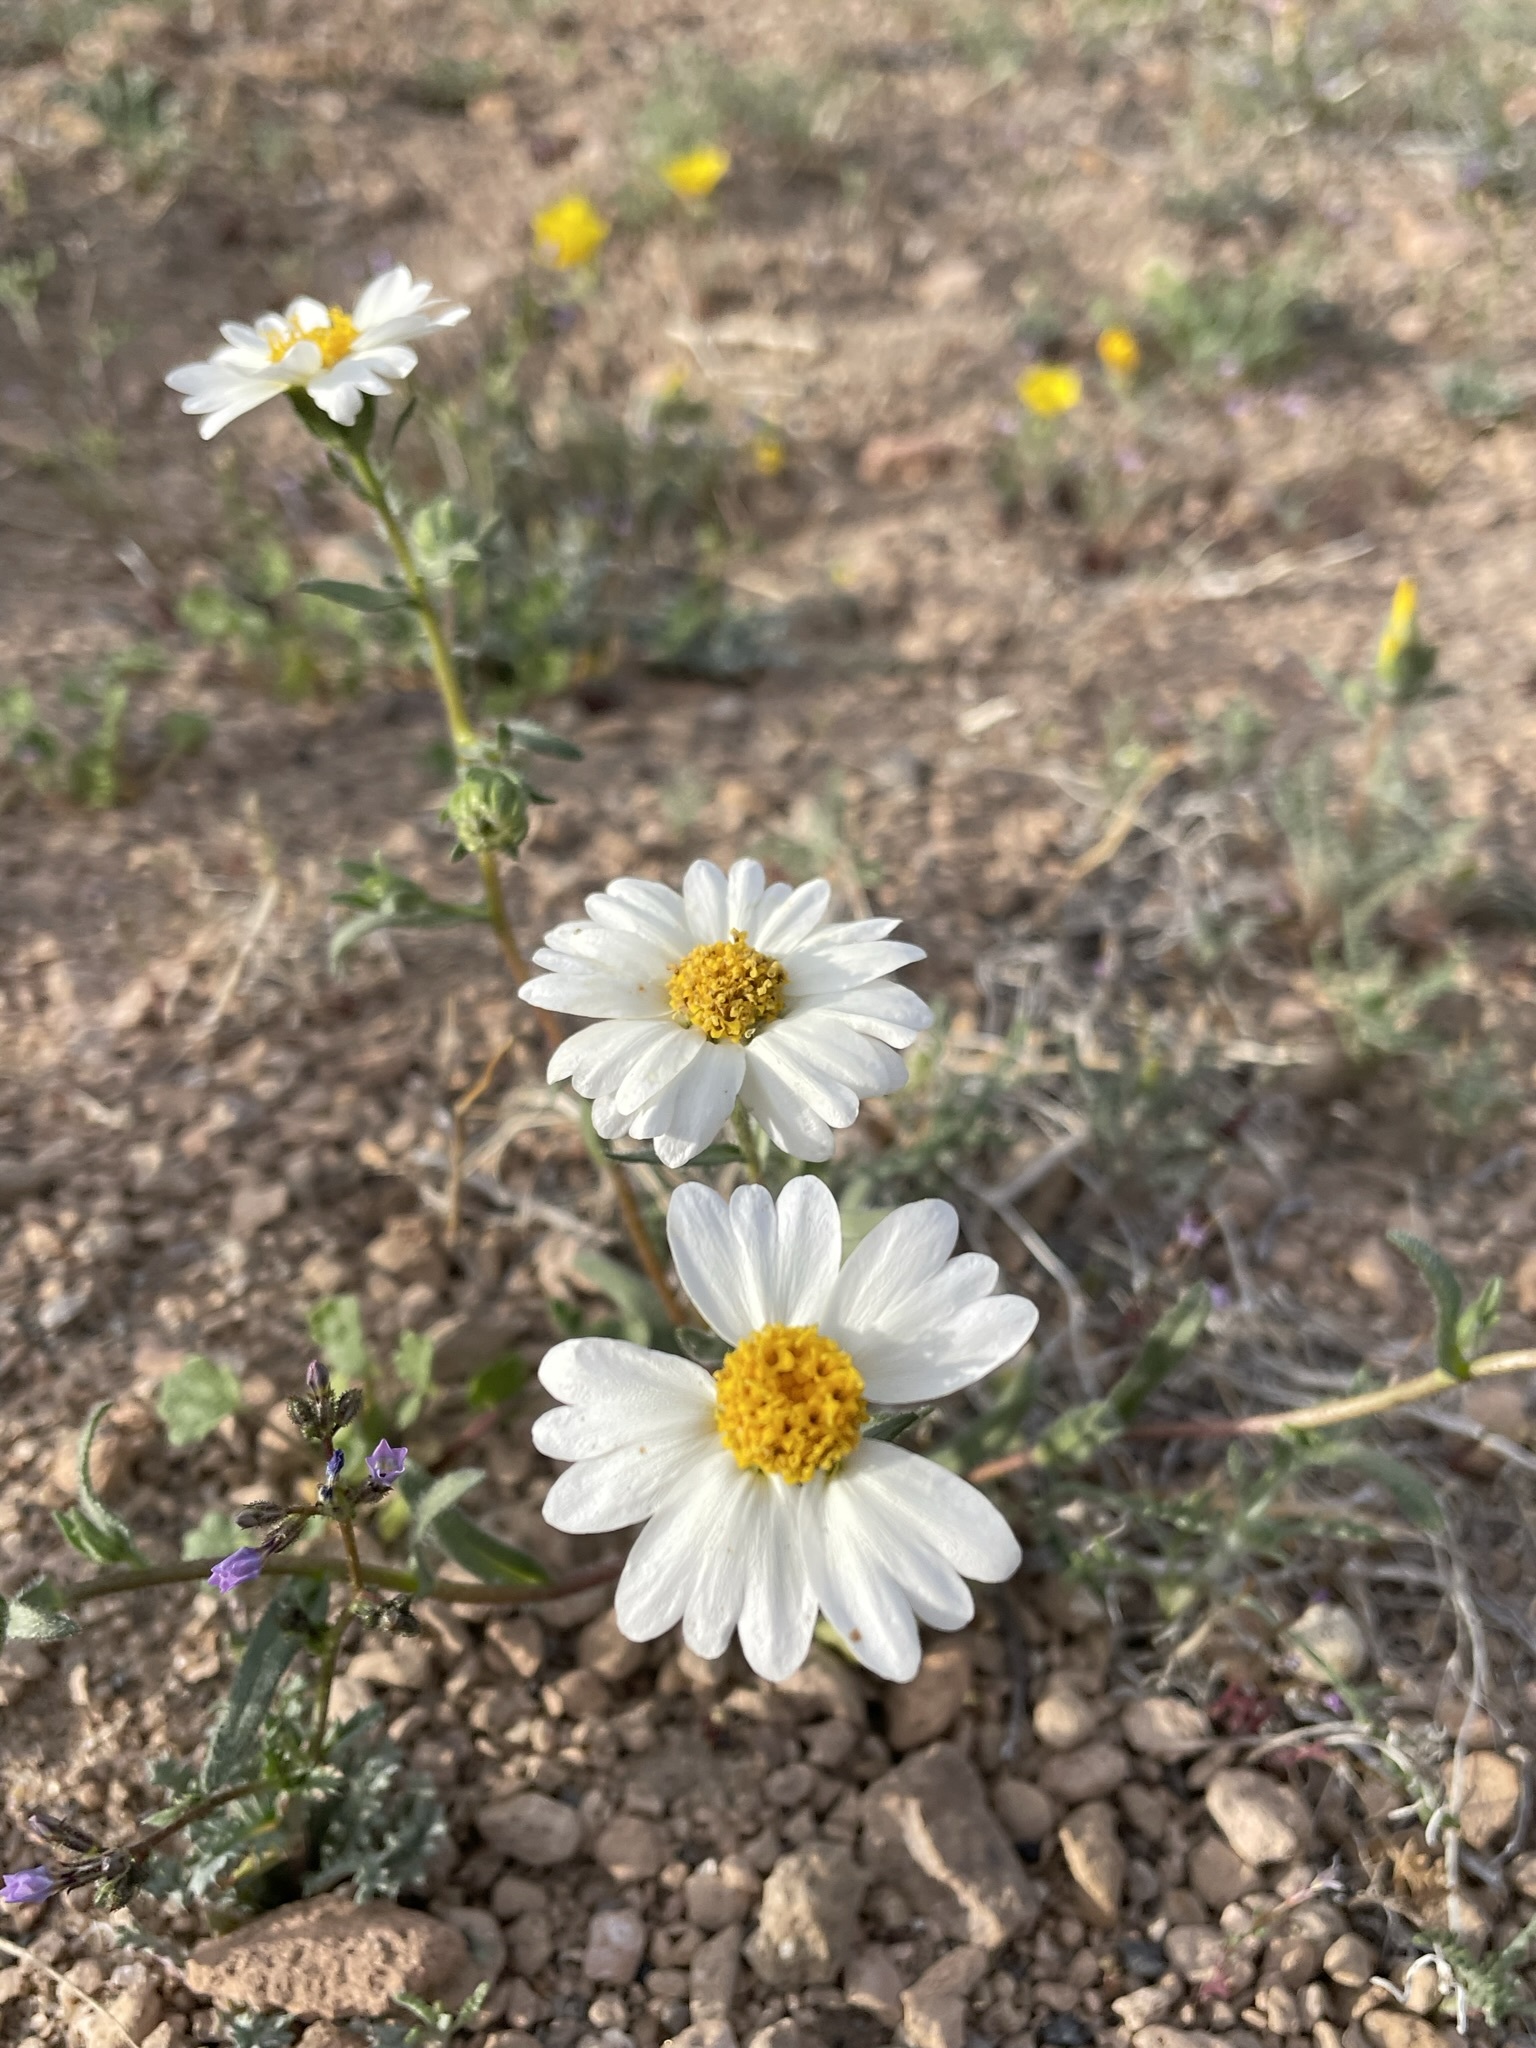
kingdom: Plantae
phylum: Tracheophyta
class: Magnoliopsida
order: Asterales
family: Asteraceae
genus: Layia
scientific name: Layia glandulosa
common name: White layia
